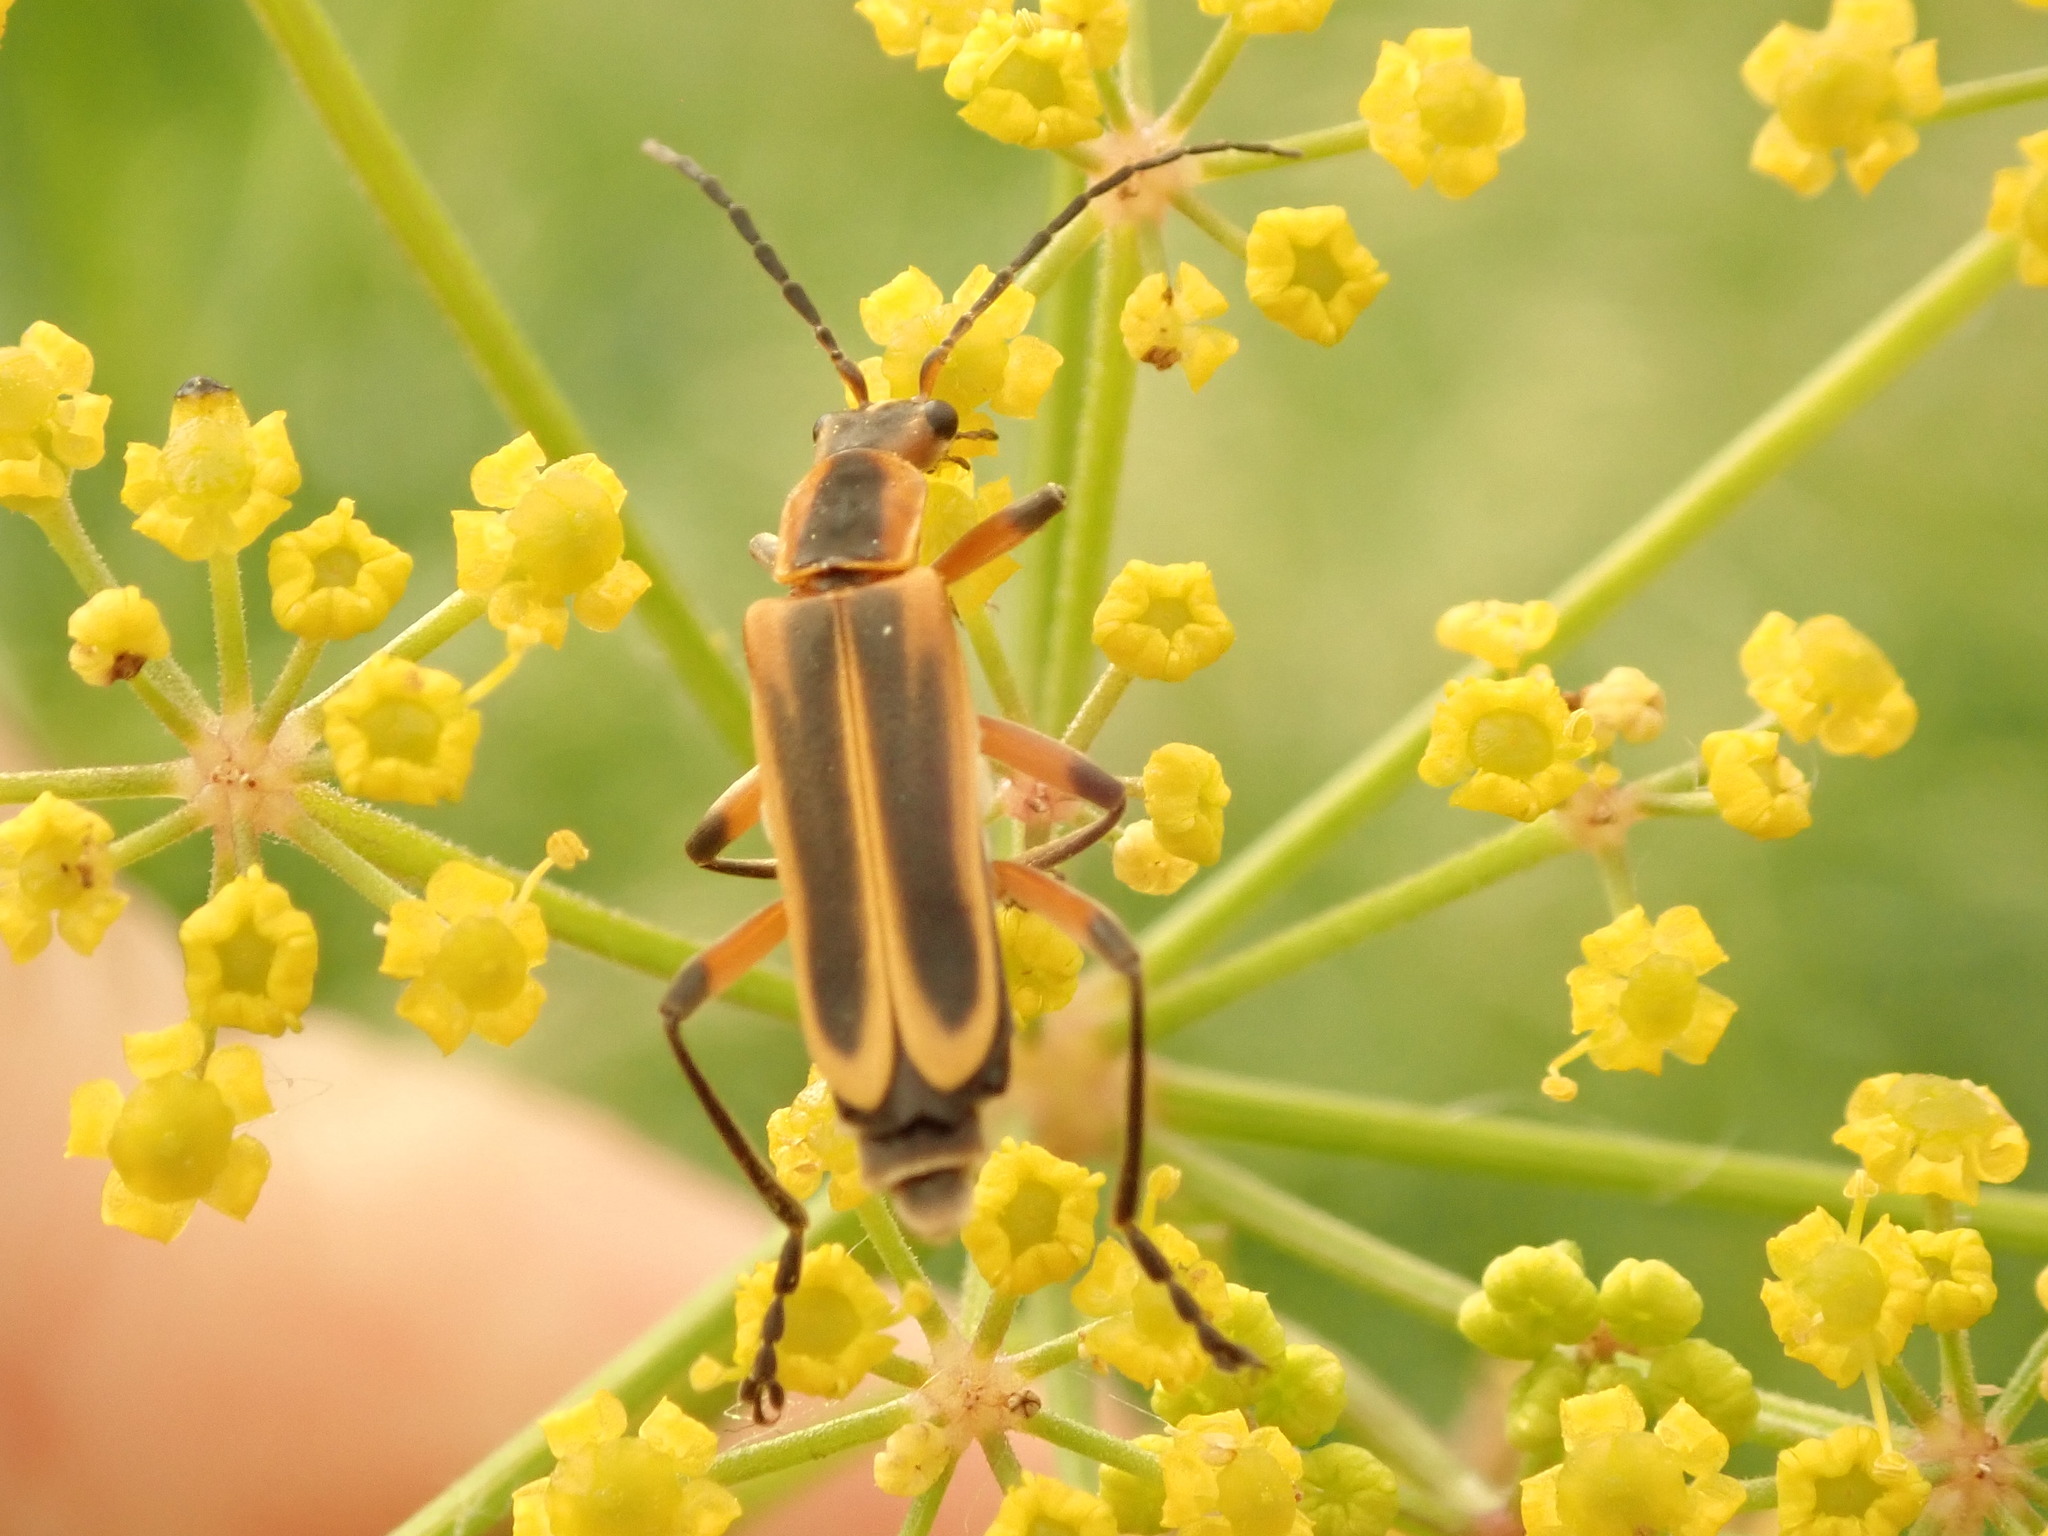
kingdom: Animalia
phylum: Arthropoda
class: Insecta
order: Coleoptera
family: Cantharidae
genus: Chauliognathus
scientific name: Chauliognathus marginatus
